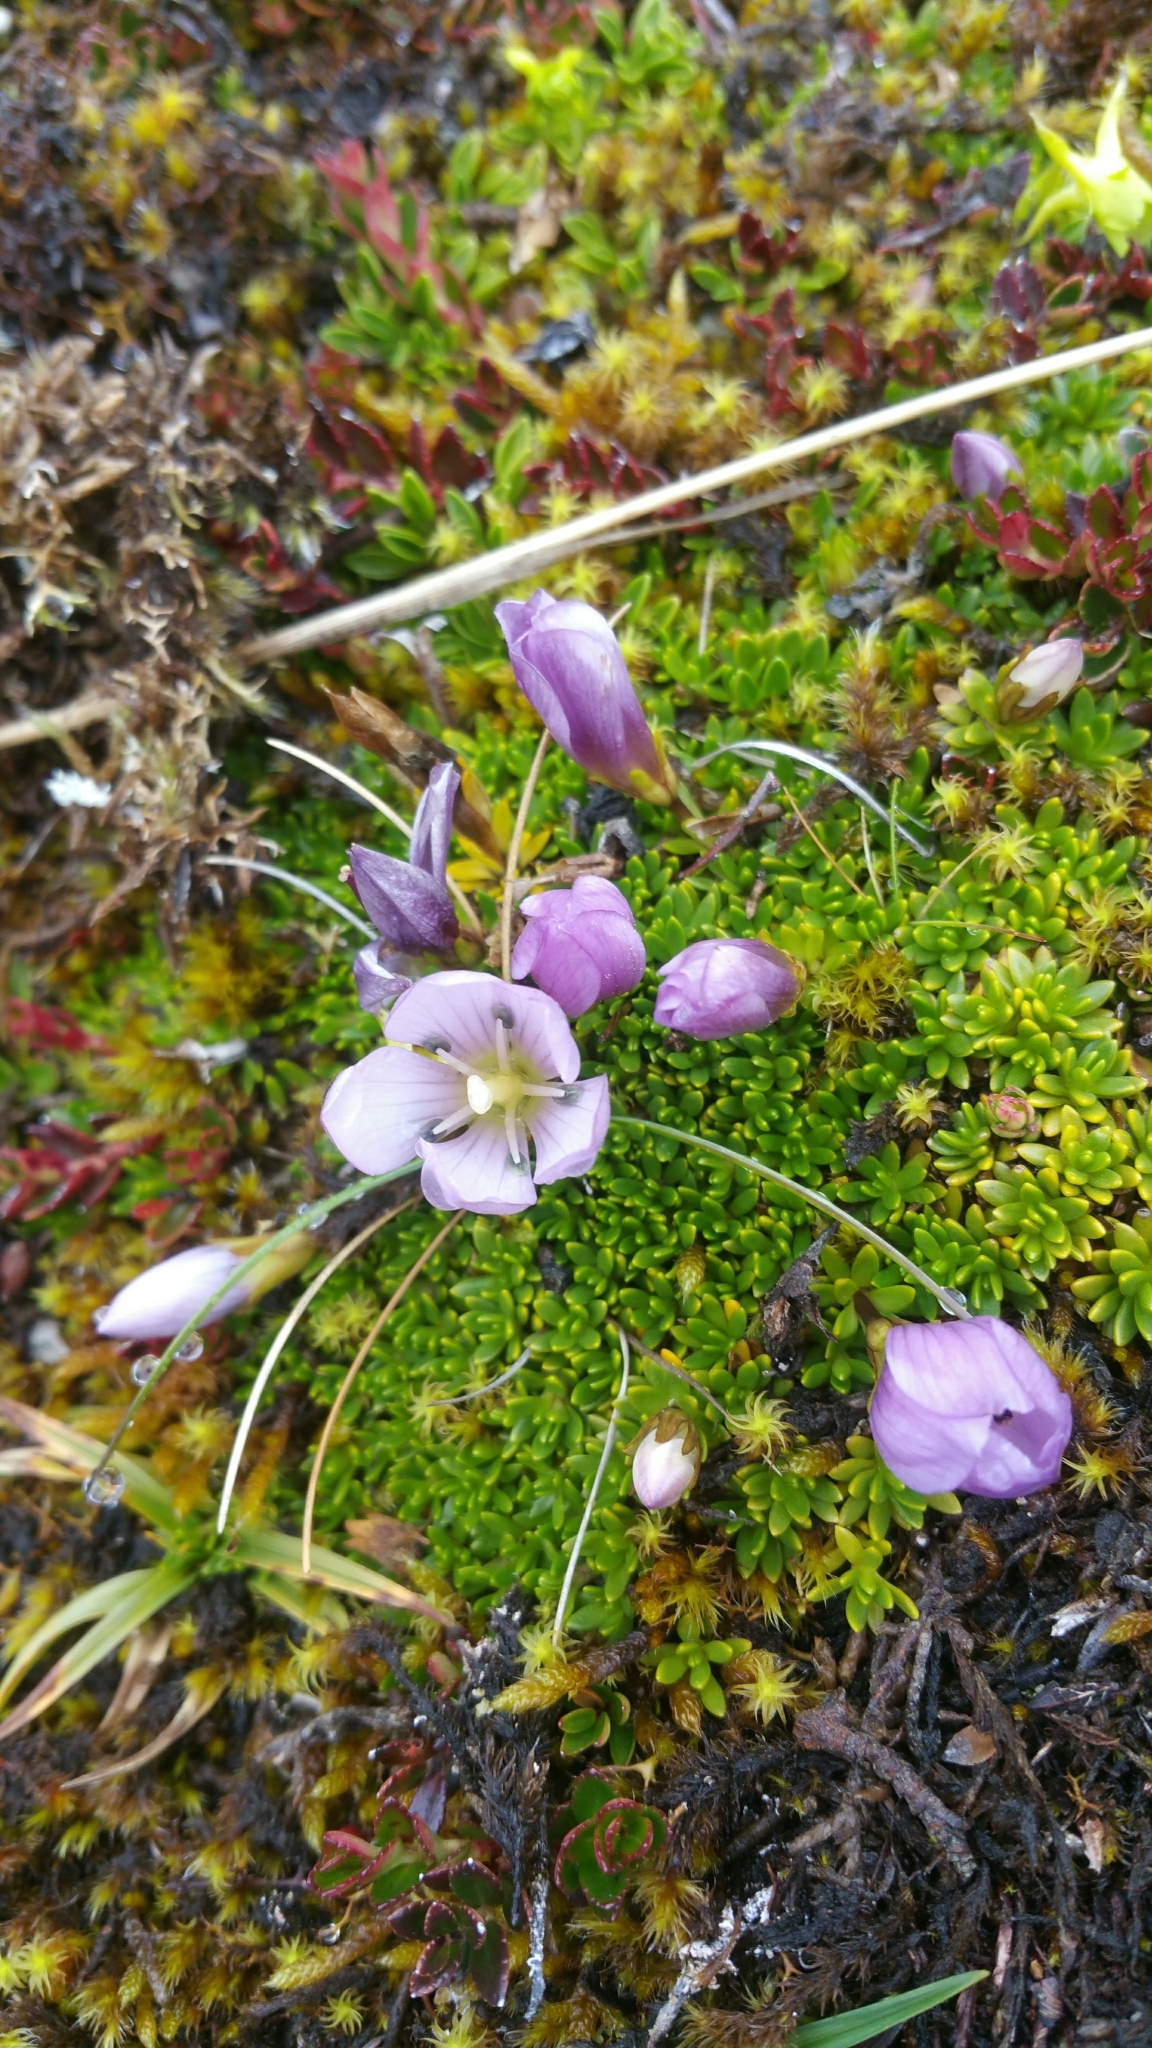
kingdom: Plantae
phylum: Tracheophyta
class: Magnoliopsida
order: Gentianales
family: Gentianaceae
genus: Gentianella
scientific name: Gentianella cerastioides
